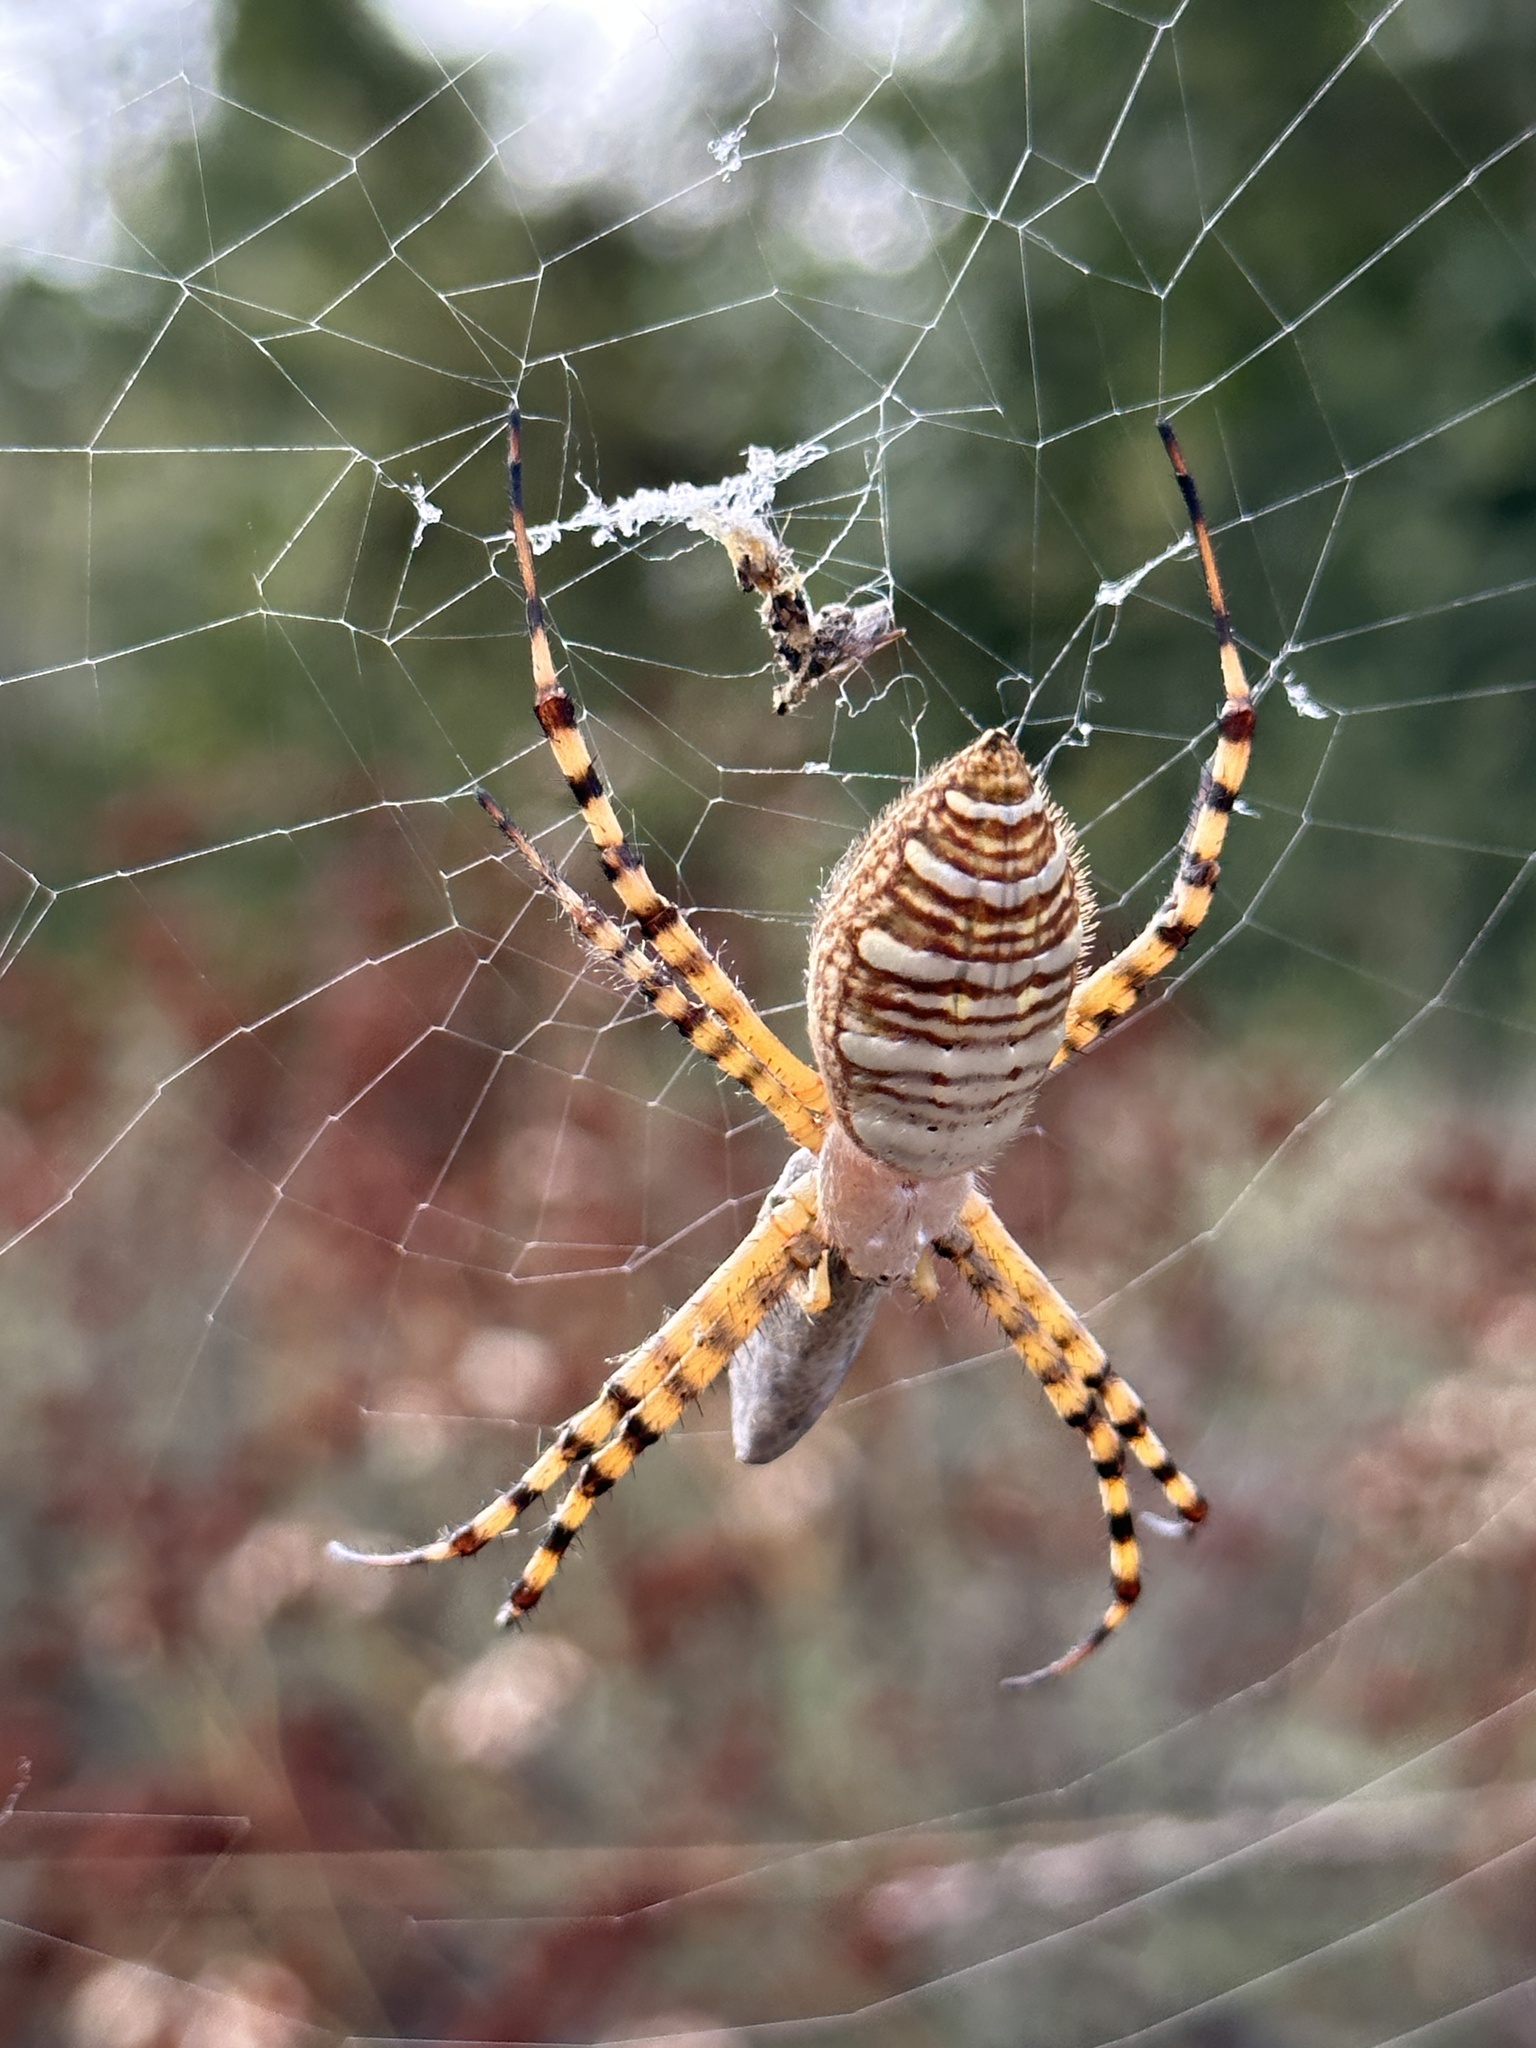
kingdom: Animalia
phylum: Arthropoda
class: Arachnida
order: Araneae
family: Araneidae
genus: Argiope
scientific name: Argiope trifasciata
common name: Banded garden spider
